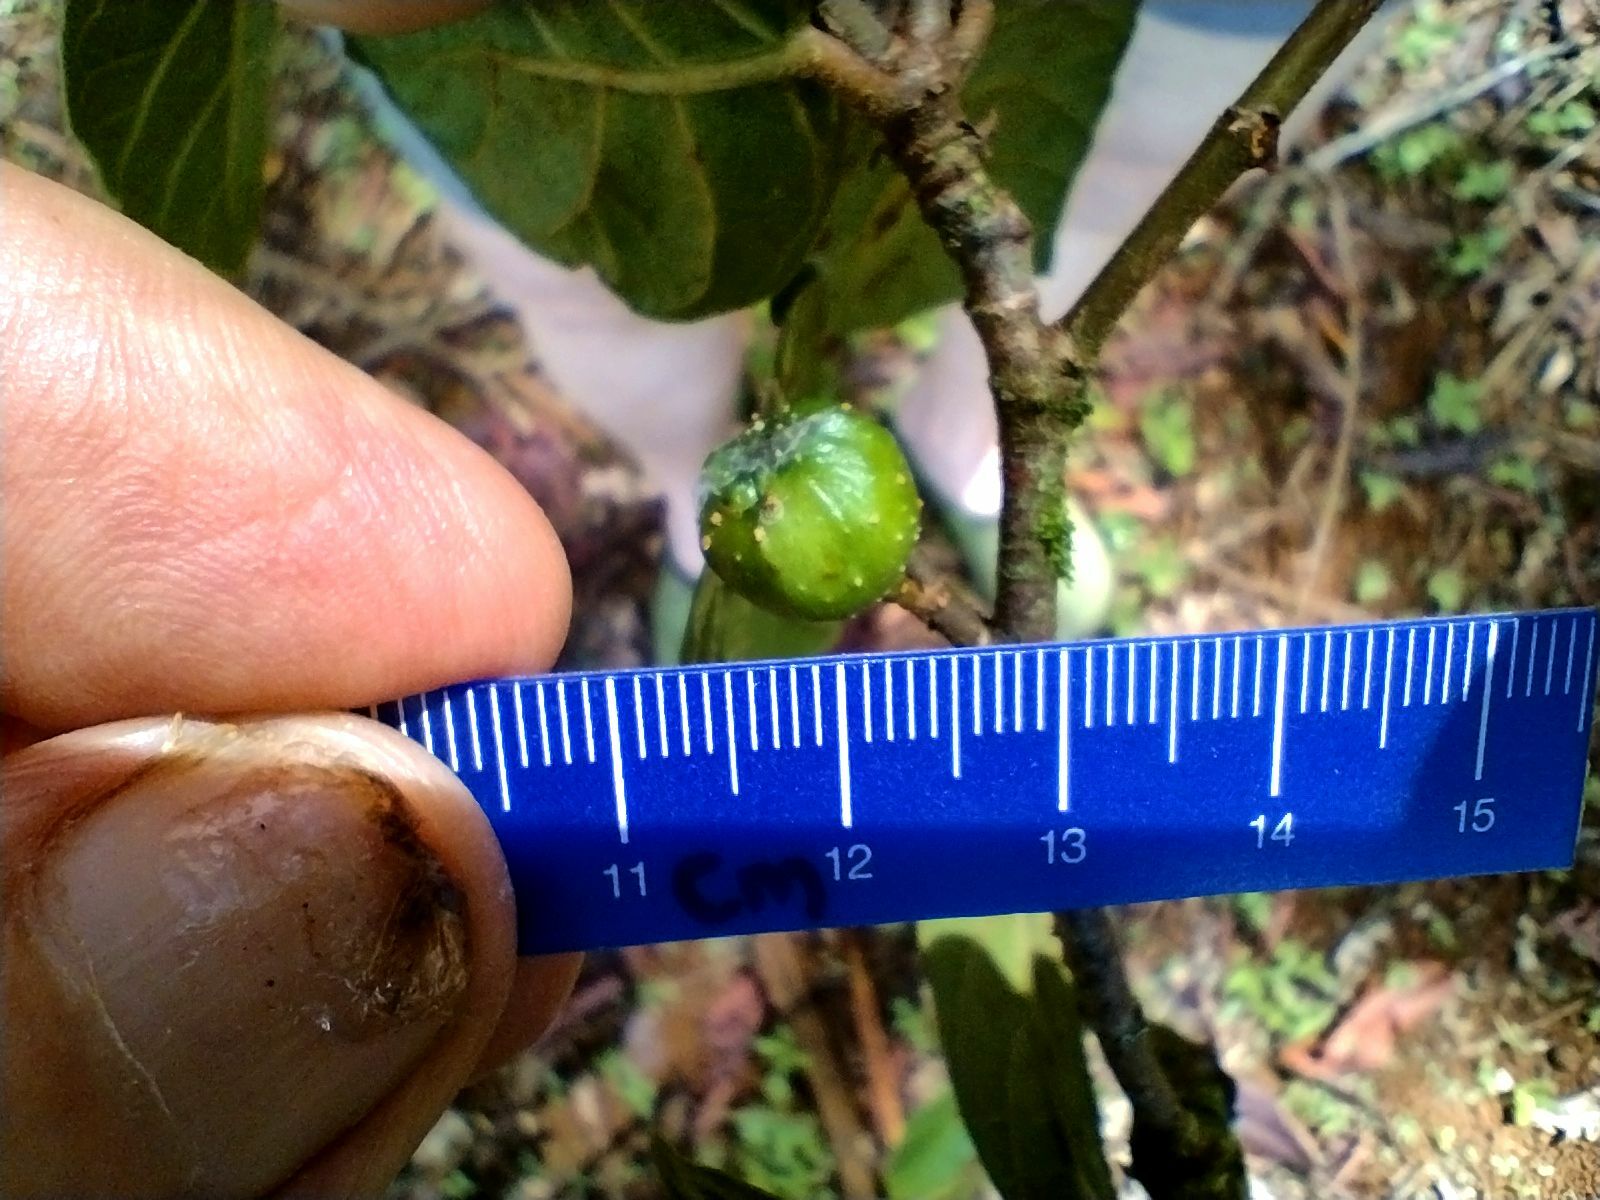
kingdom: Plantae
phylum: Tracheophyta
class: Magnoliopsida
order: Rosales
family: Moraceae
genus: Ficus
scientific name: Ficus septica
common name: Septic fig
